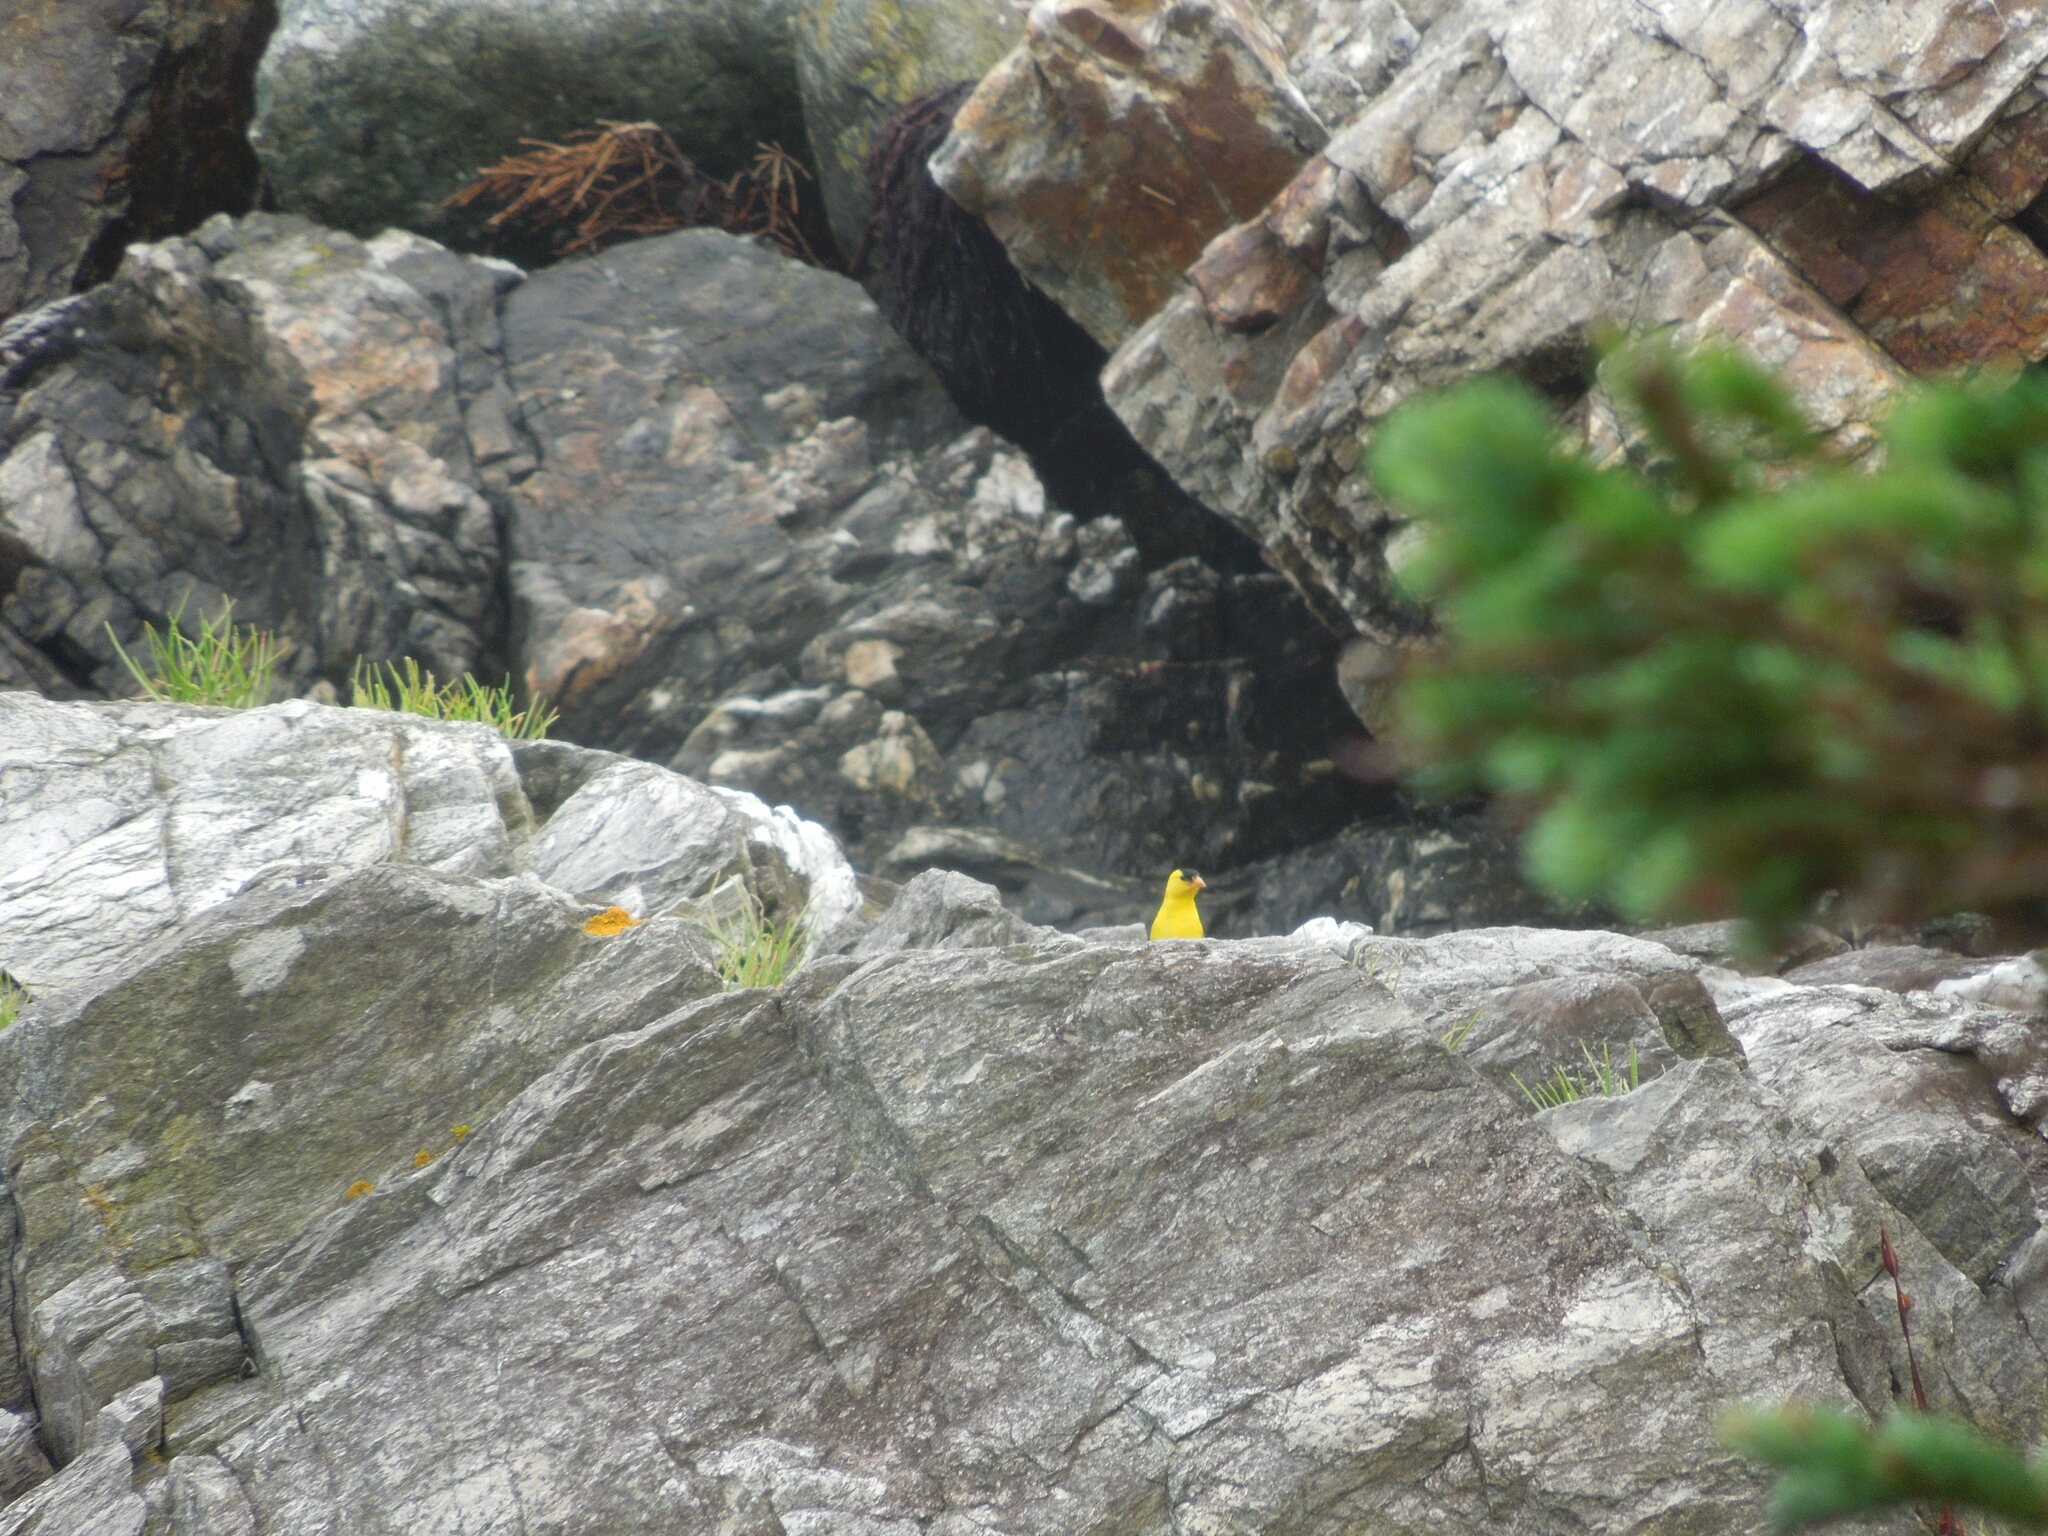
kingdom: Animalia
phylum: Chordata
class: Aves
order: Passeriformes
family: Fringillidae
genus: Spinus
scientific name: Spinus tristis
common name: American goldfinch
